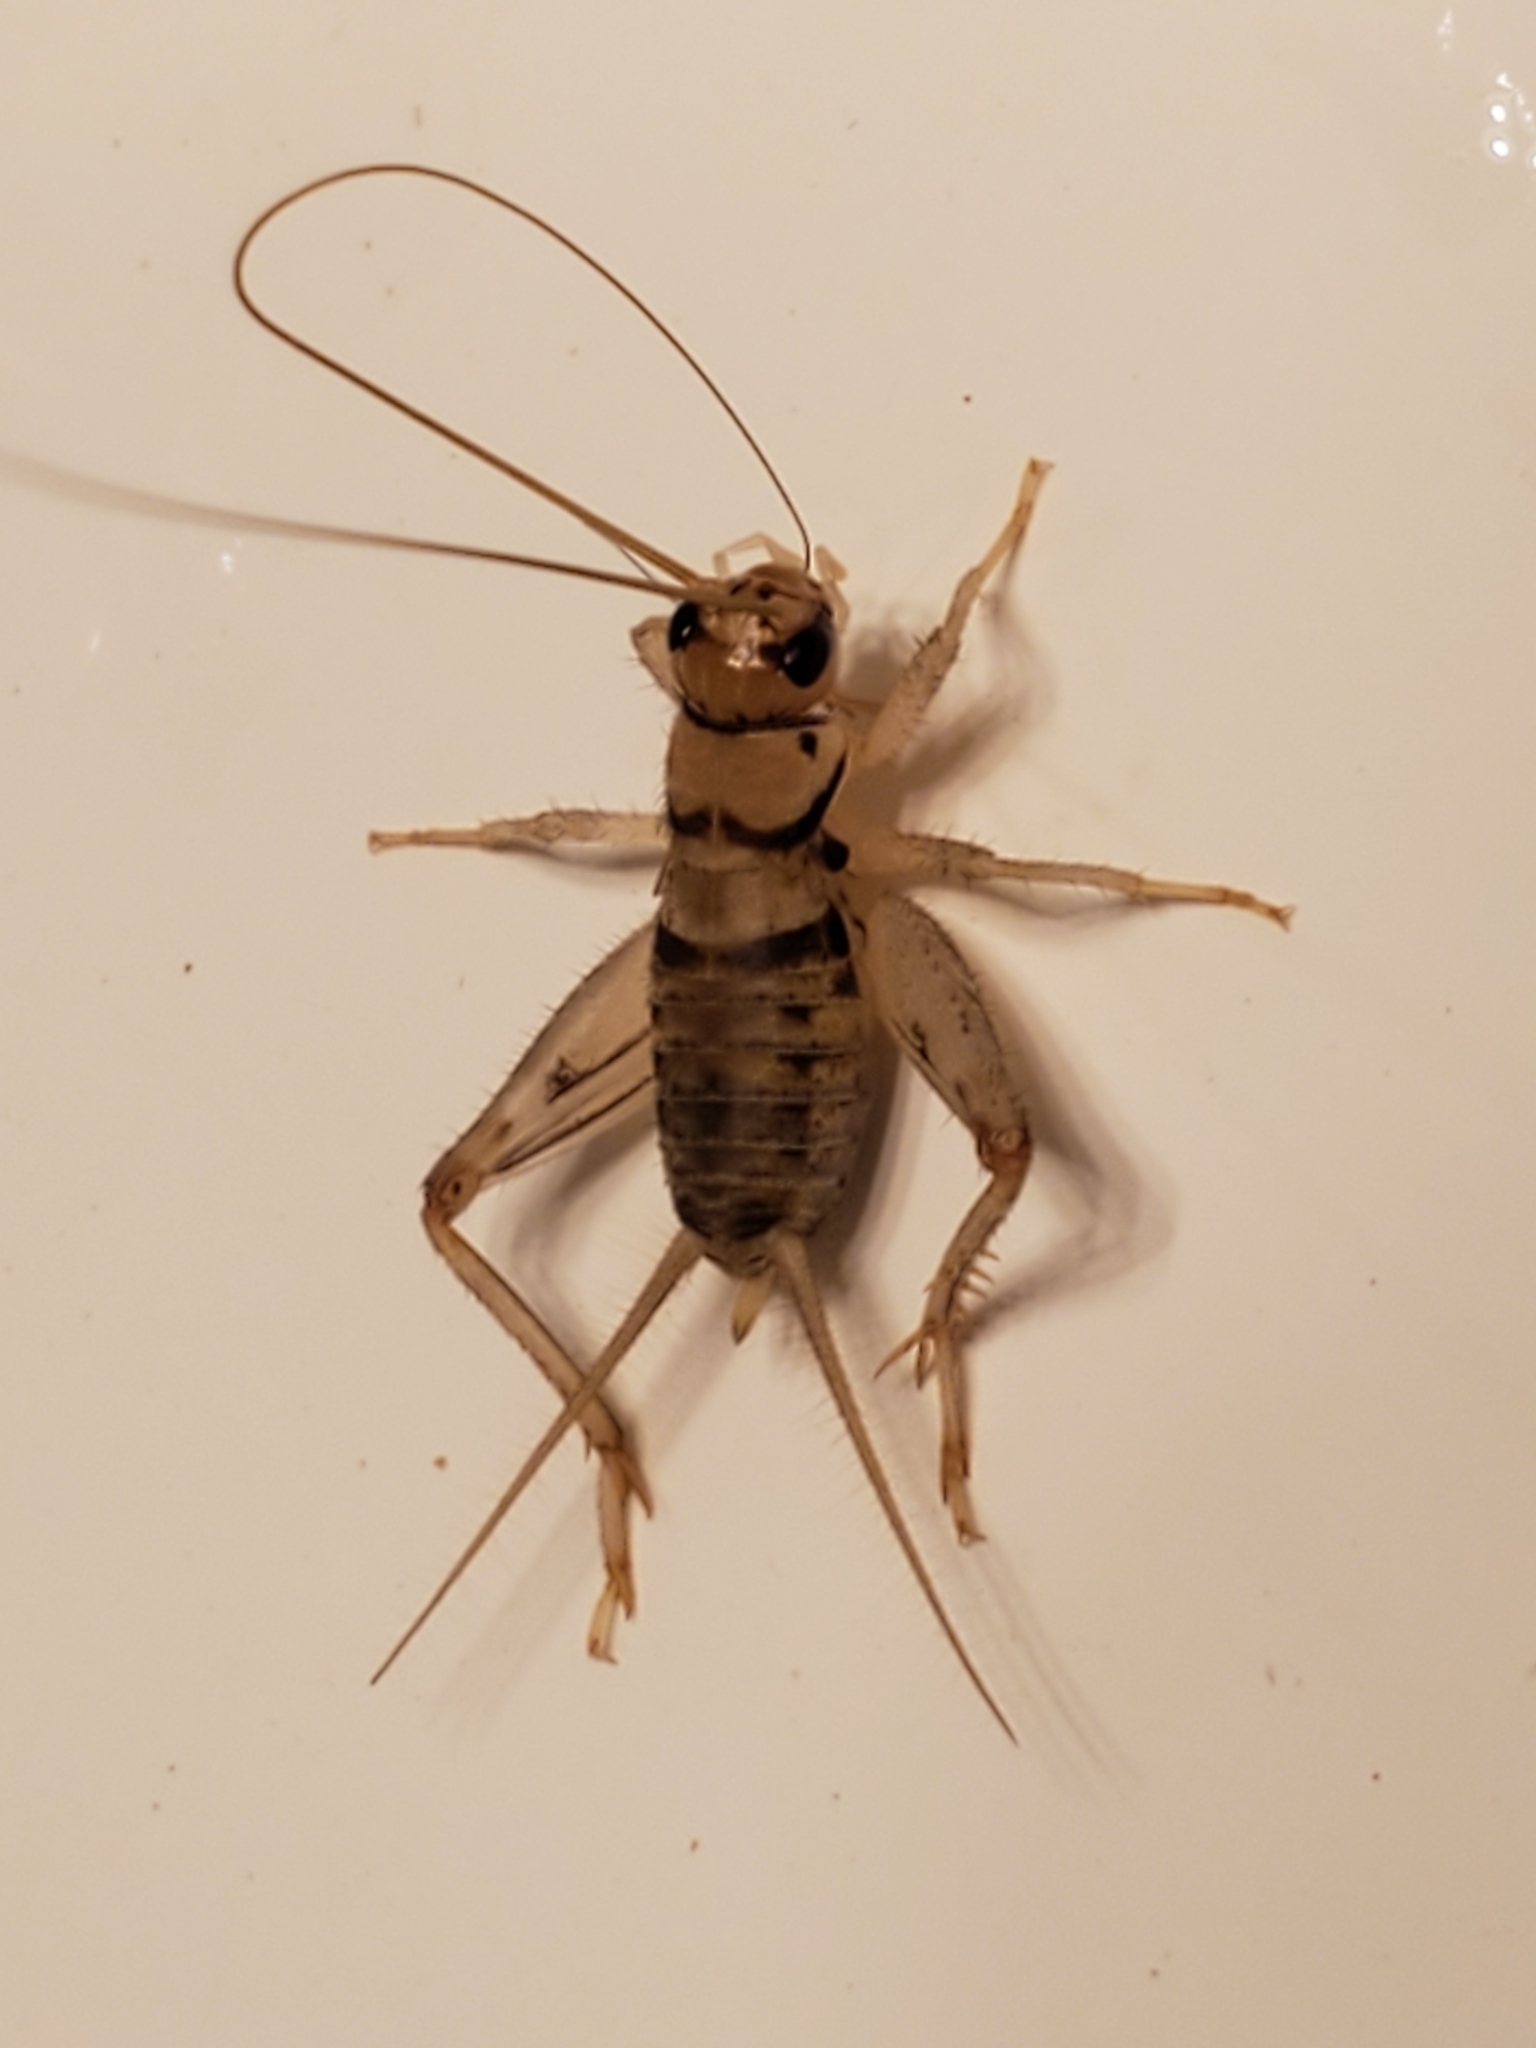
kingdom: Animalia
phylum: Arthropoda
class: Insecta
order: Orthoptera
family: Gryllidae
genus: Gryllodes
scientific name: Gryllodes sigillatus
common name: Tropical house cricket
